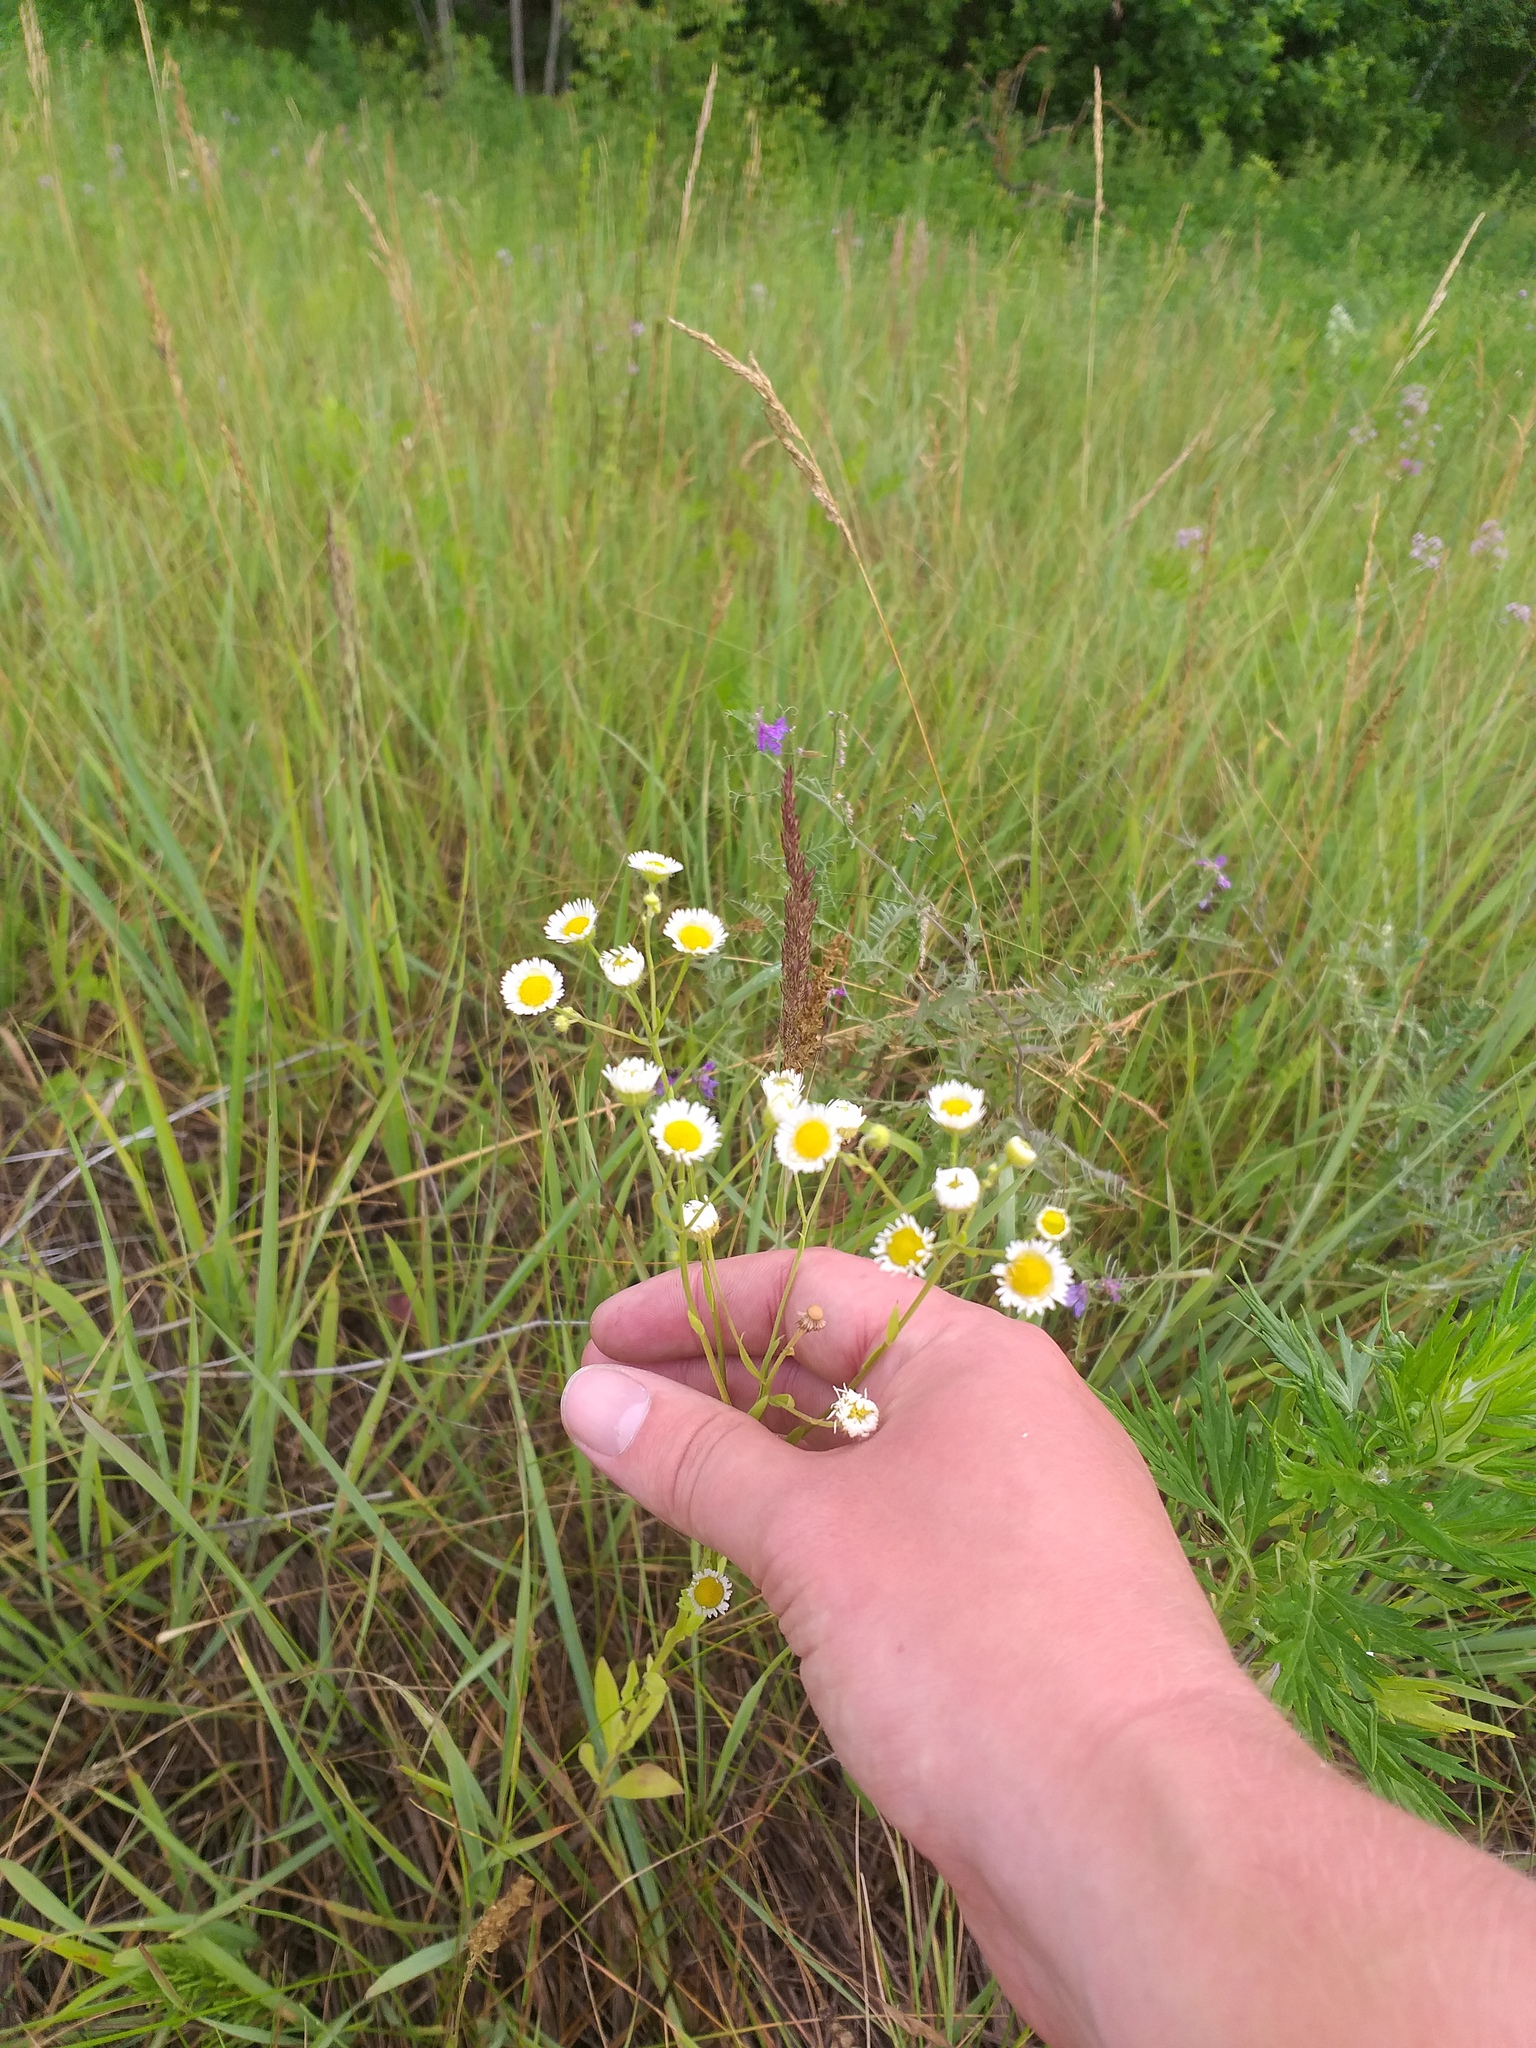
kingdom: Plantae
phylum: Tracheophyta
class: Magnoliopsida
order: Asterales
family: Asteraceae
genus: Erigeron
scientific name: Erigeron annuus
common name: Tall fleabane
